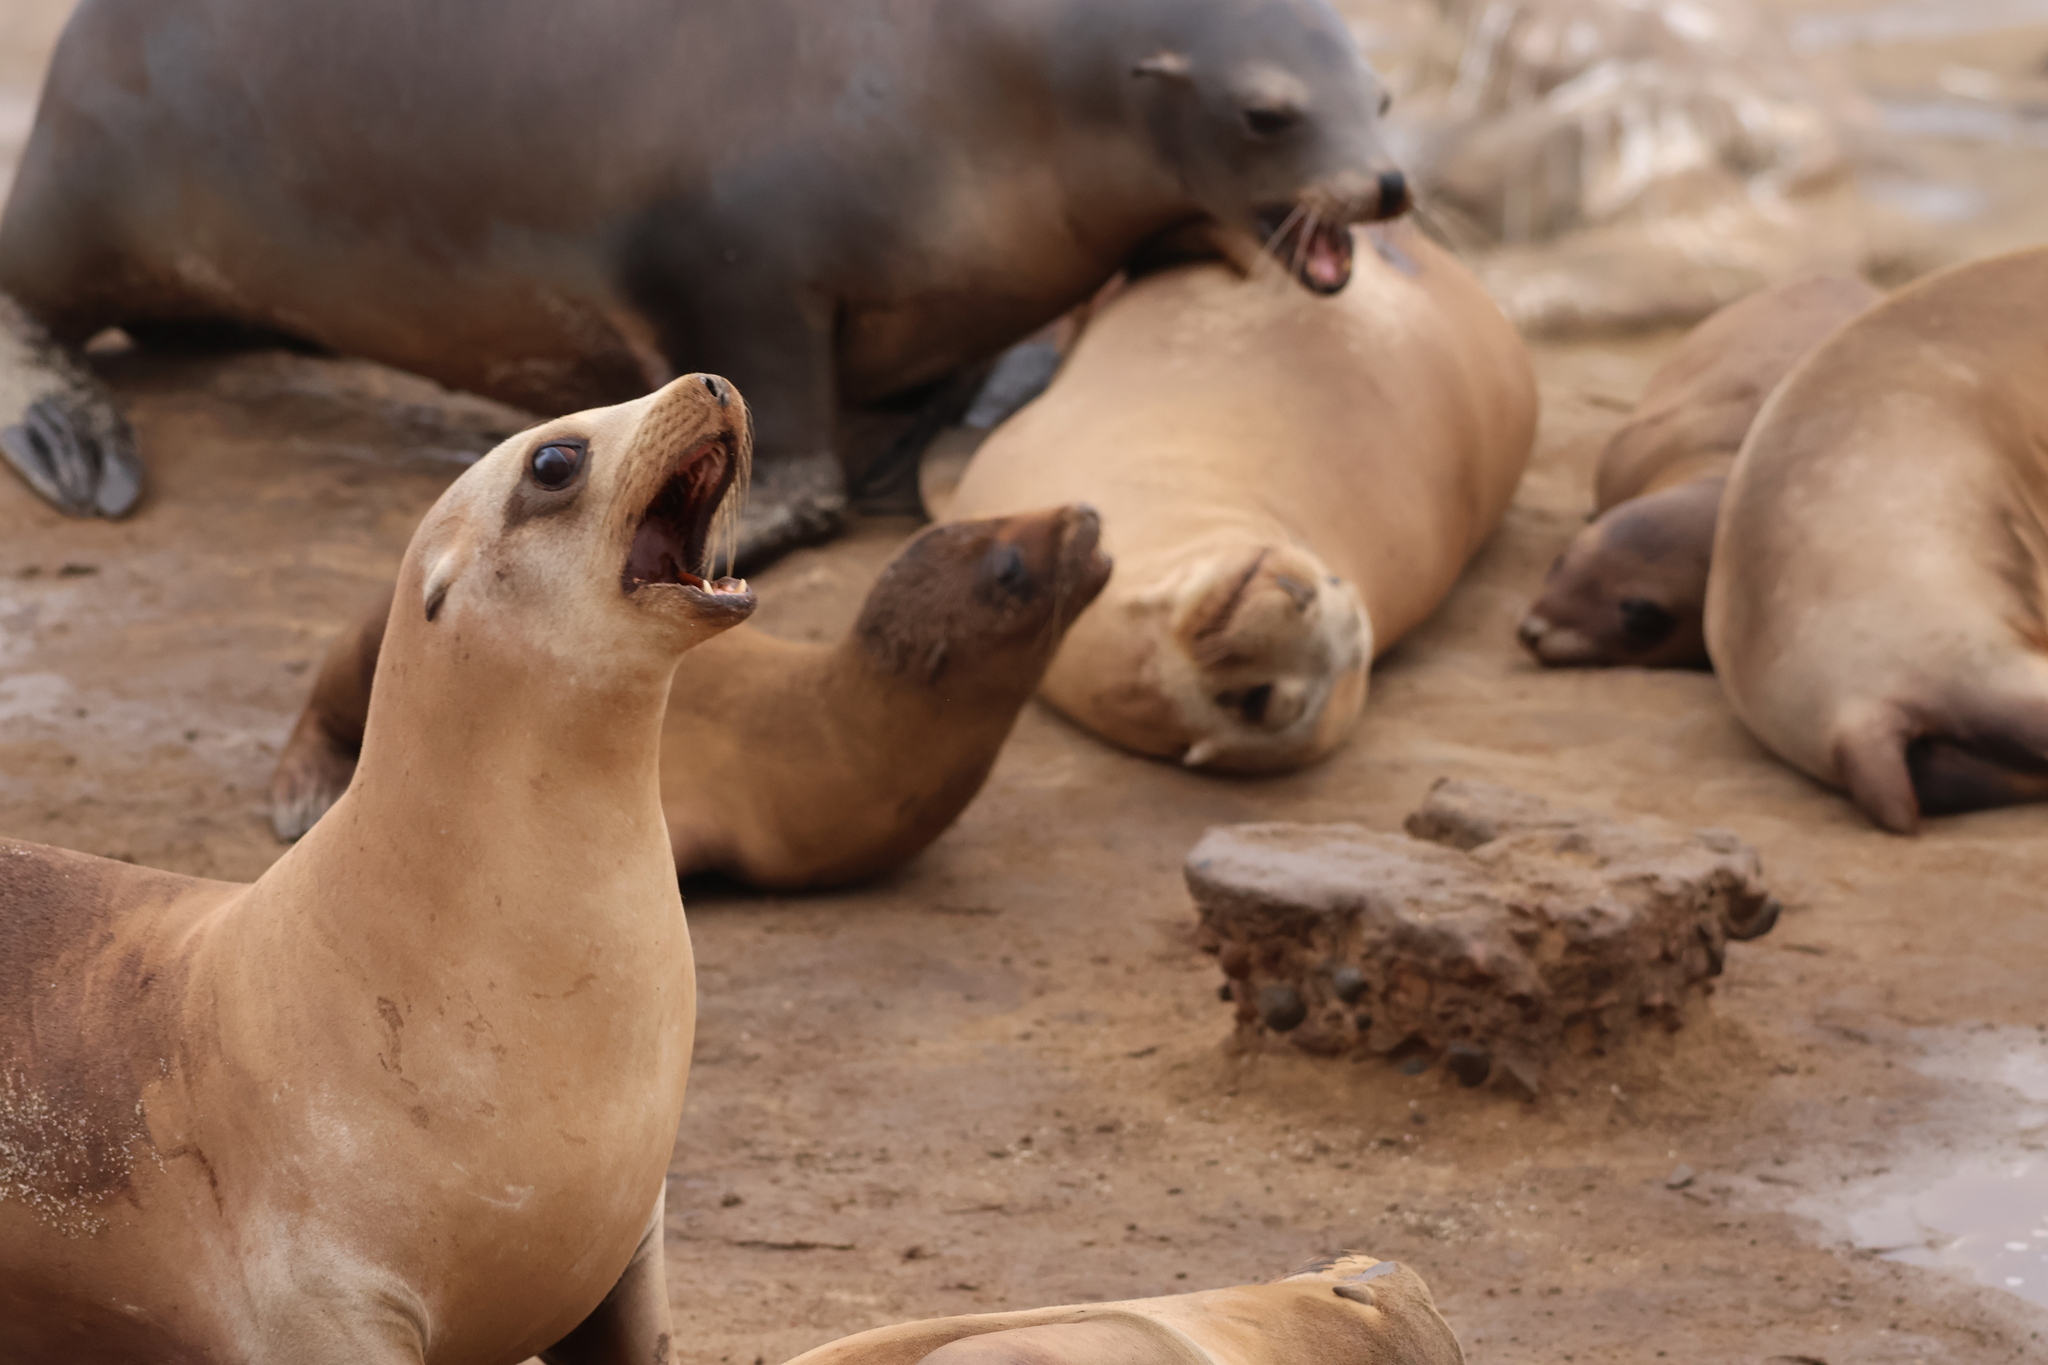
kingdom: Animalia
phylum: Chordata
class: Mammalia
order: Carnivora
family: Otariidae
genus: Zalophus
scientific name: Zalophus californianus
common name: California sea lion
